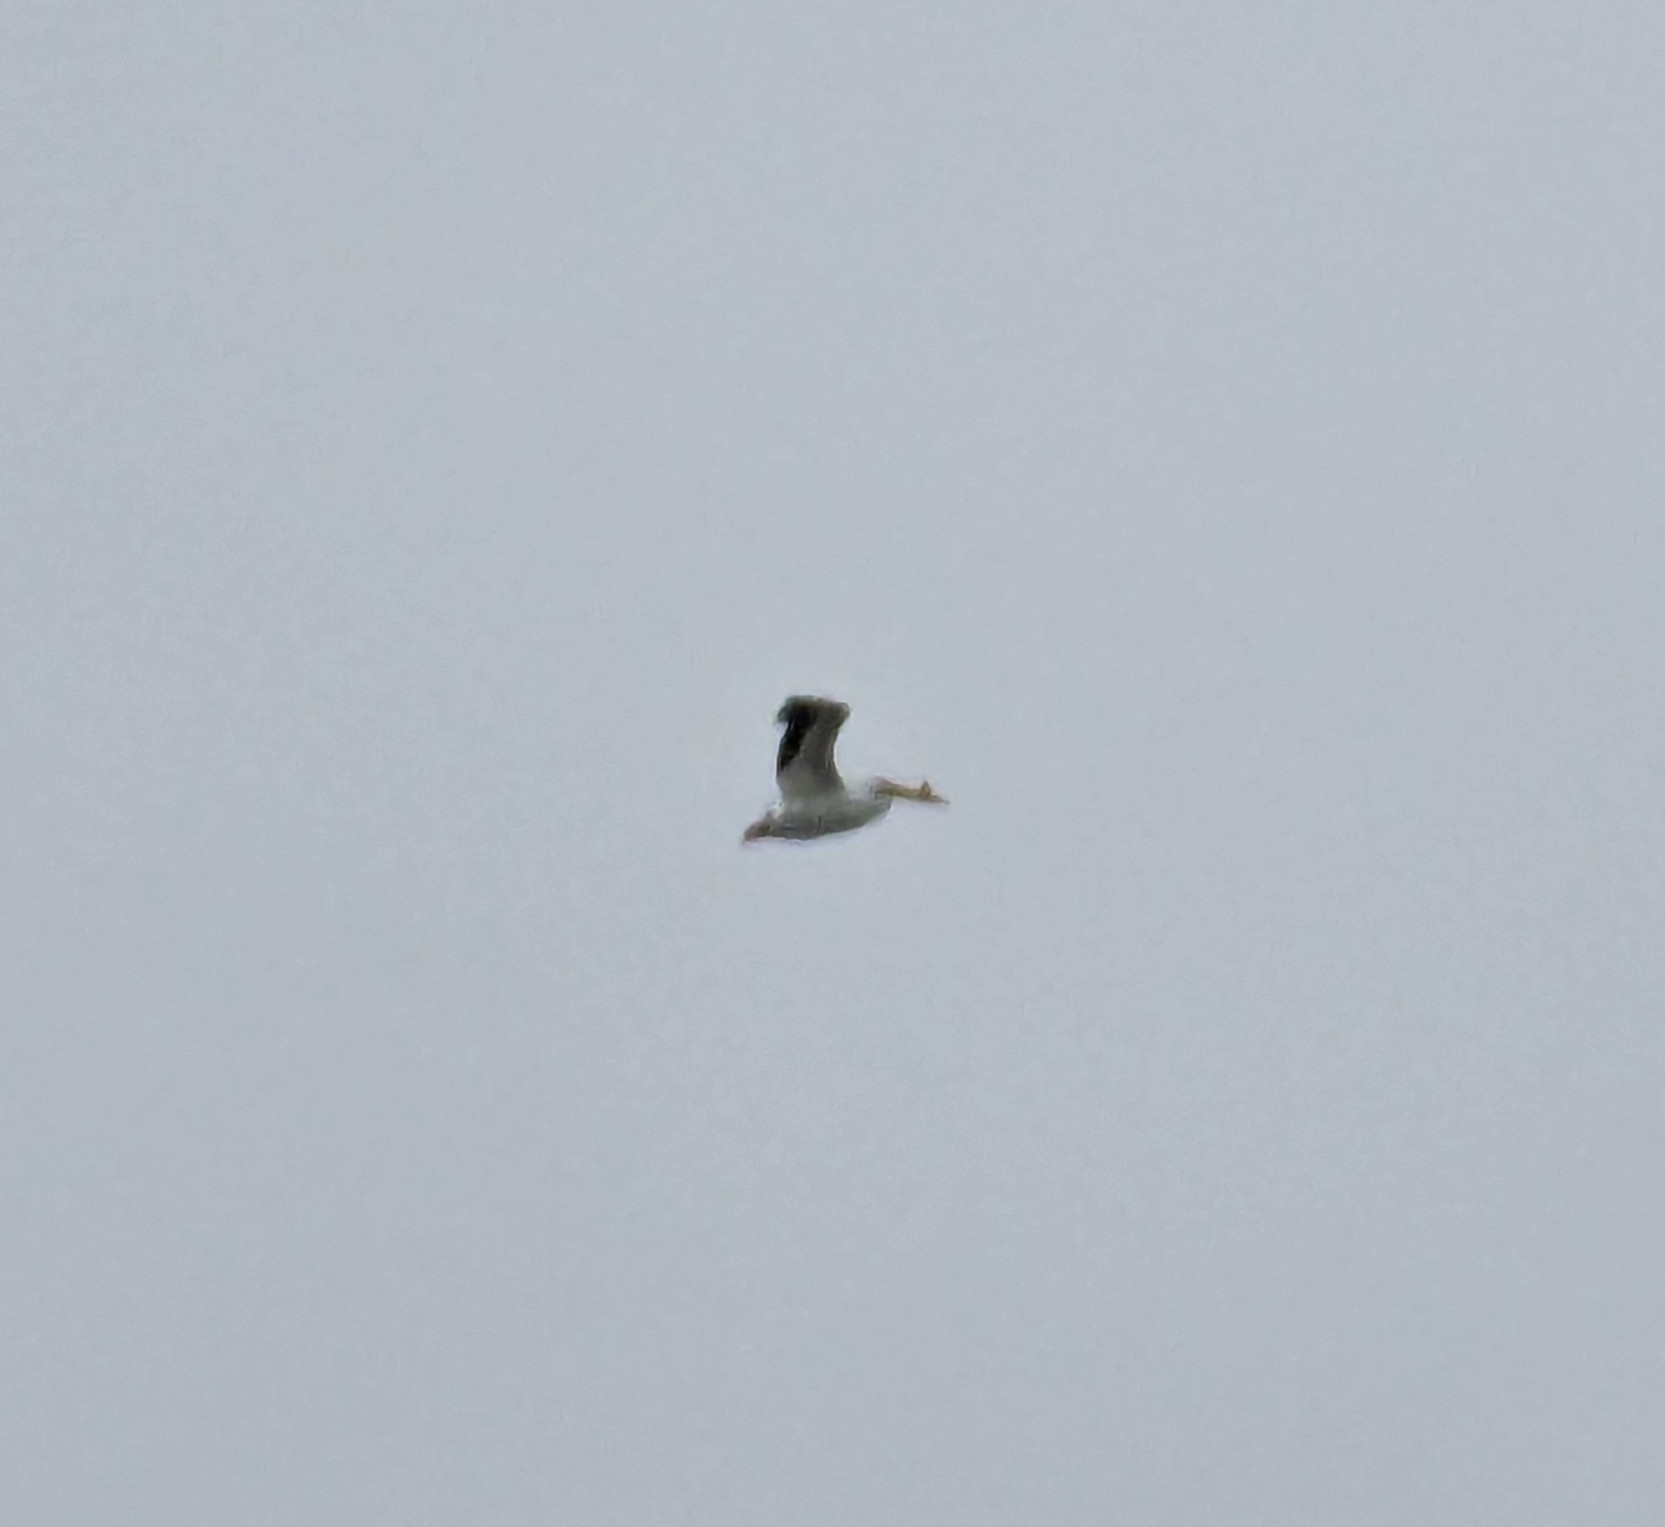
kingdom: Animalia
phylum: Chordata
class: Aves
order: Pelecaniformes
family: Pelecanidae
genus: Pelecanus
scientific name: Pelecanus erythrorhynchos
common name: American white pelican
